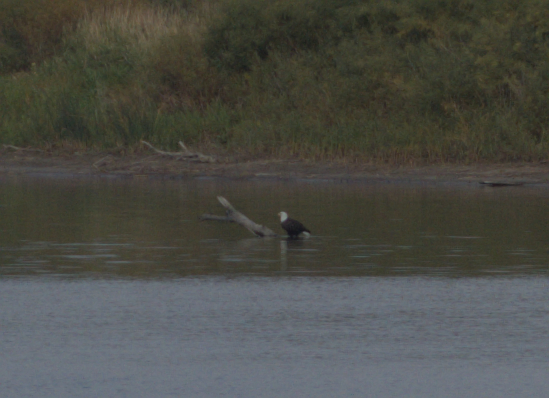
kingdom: Animalia
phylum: Chordata
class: Aves
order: Accipitriformes
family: Accipitridae
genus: Haliaeetus
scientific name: Haliaeetus leucocephalus
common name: Bald eagle
